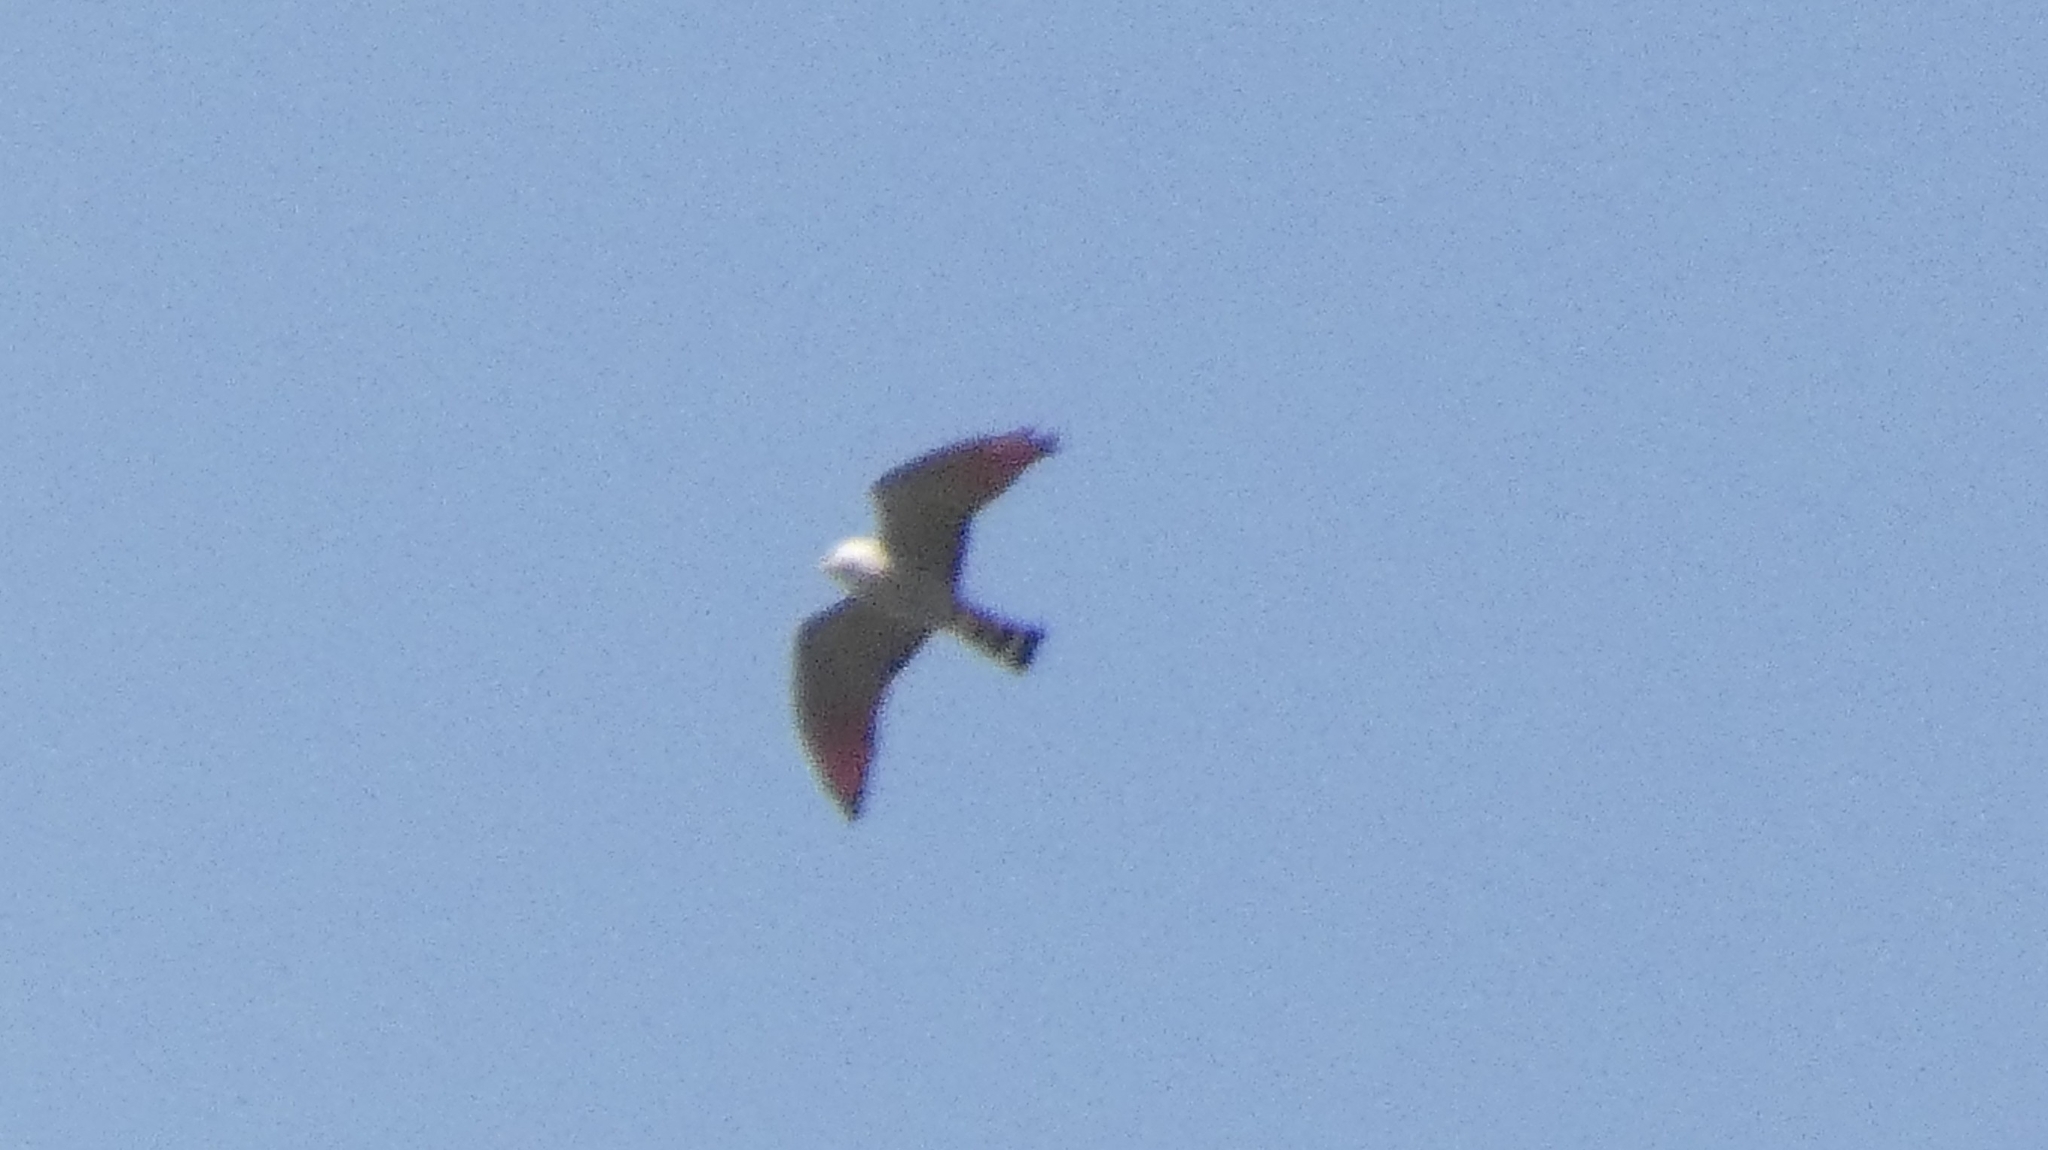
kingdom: Animalia
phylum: Chordata
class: Aves
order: Accipitriformes
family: Accipitridae
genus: Ictinia
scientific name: Ictinia plumbea
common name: Plumbeous kite
